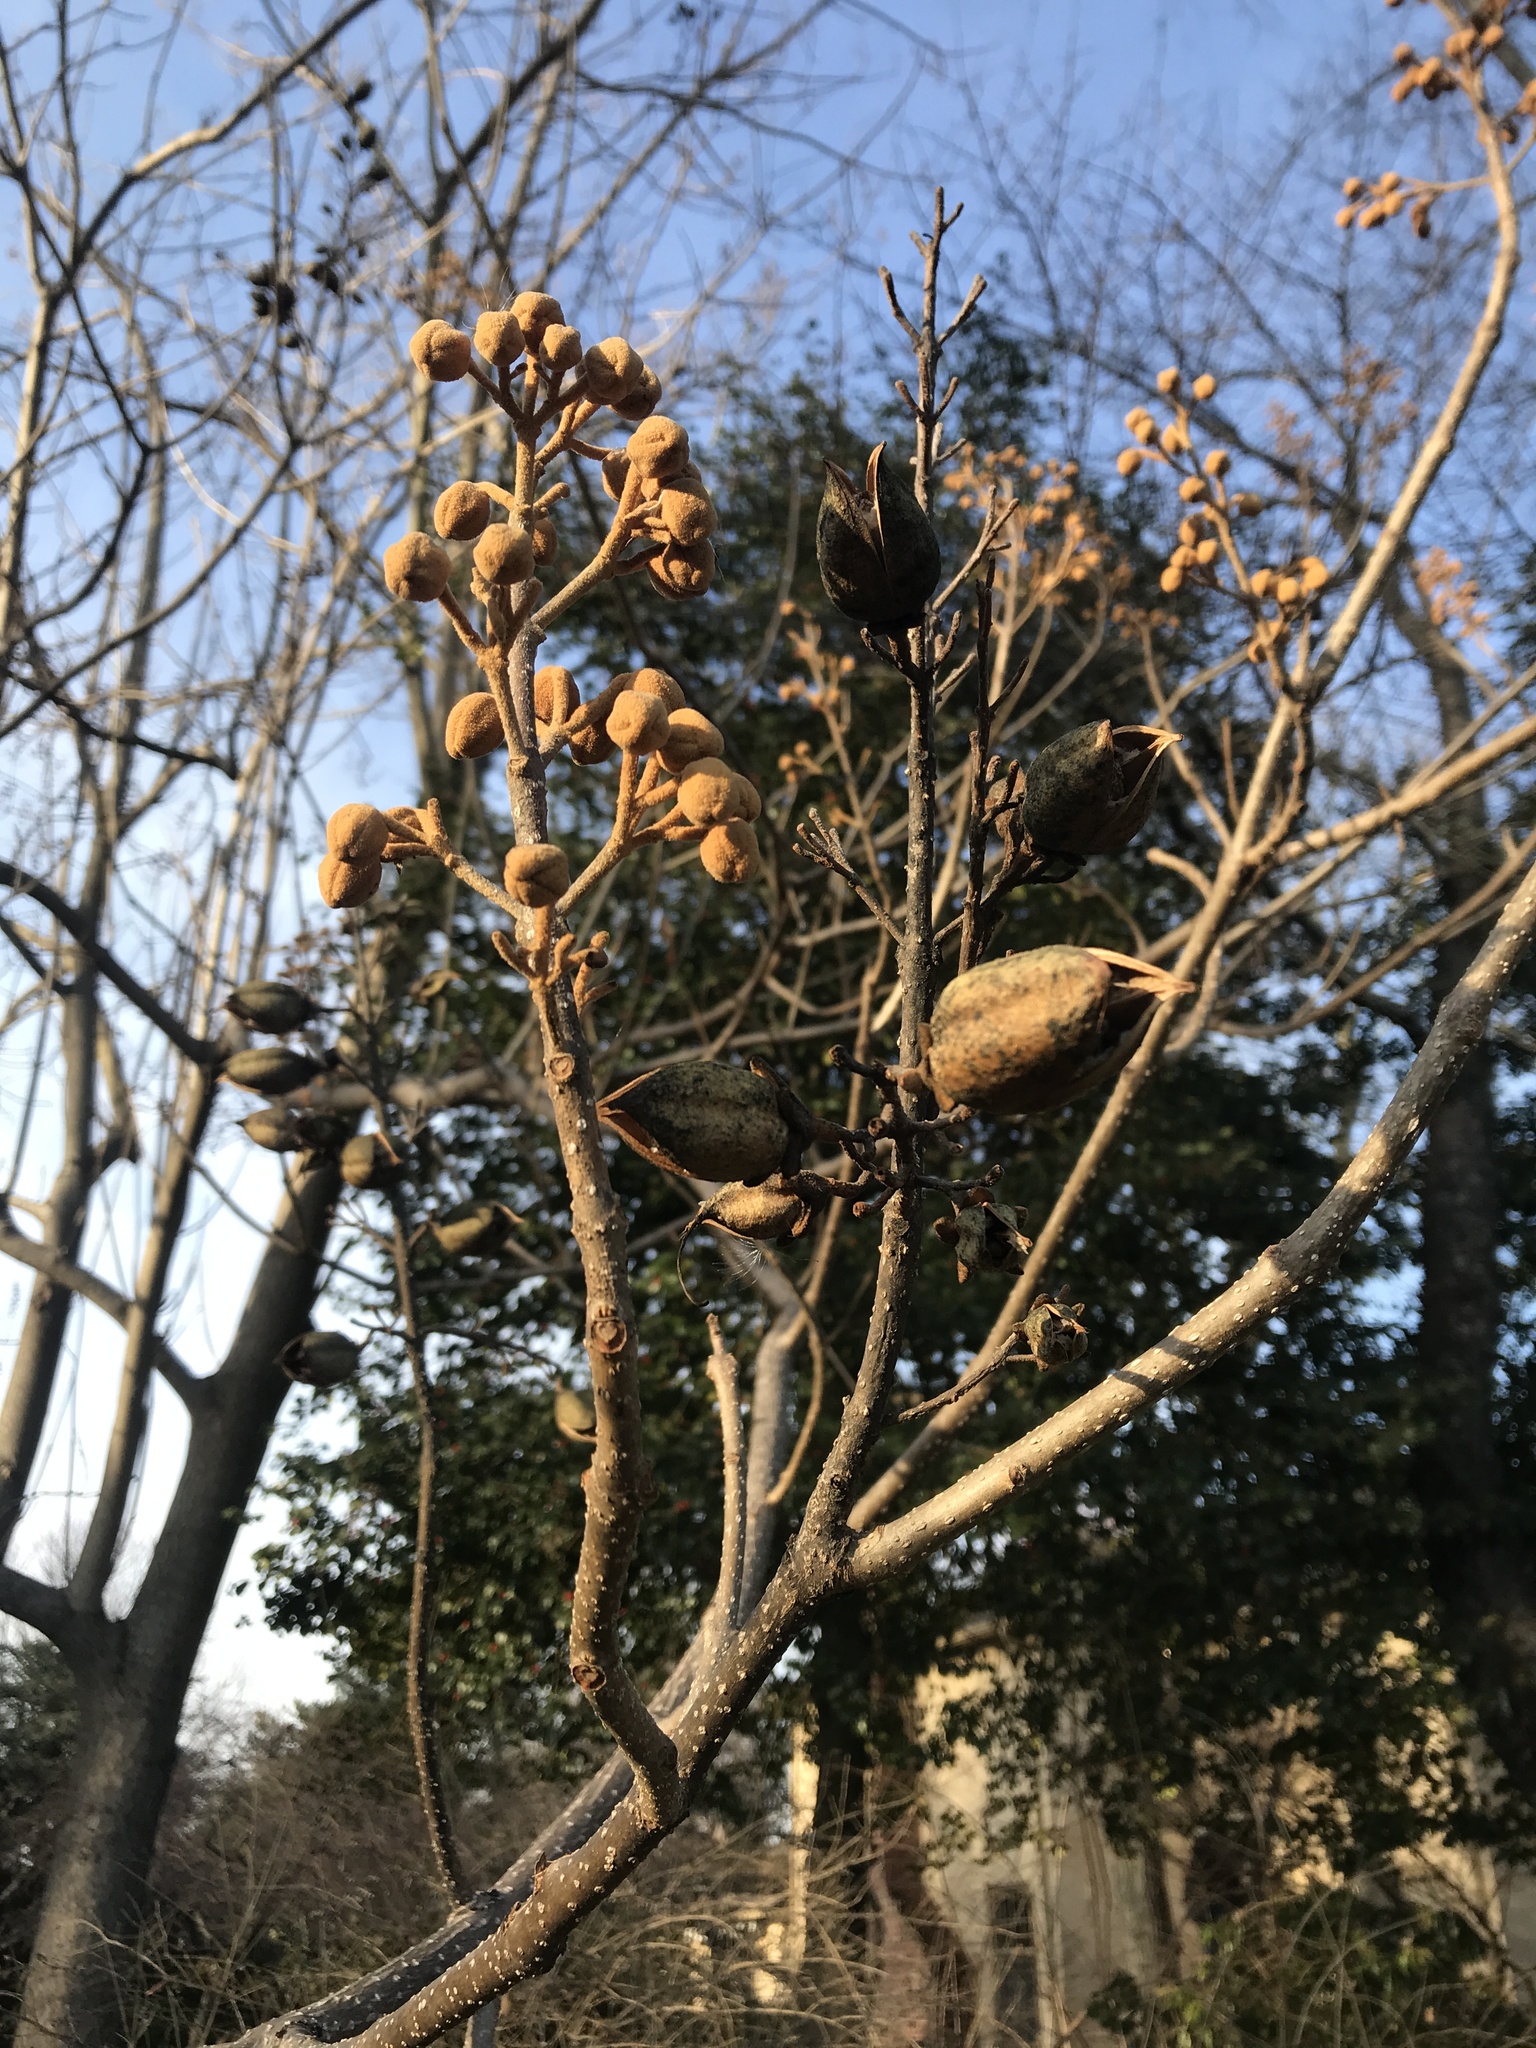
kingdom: Plantae
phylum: Tracheophyta
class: Magnoliopsida
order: Lamiales
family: Paulowniaceae
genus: Paulownia
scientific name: Paulownia tomentosa
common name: Foxglove-tree
